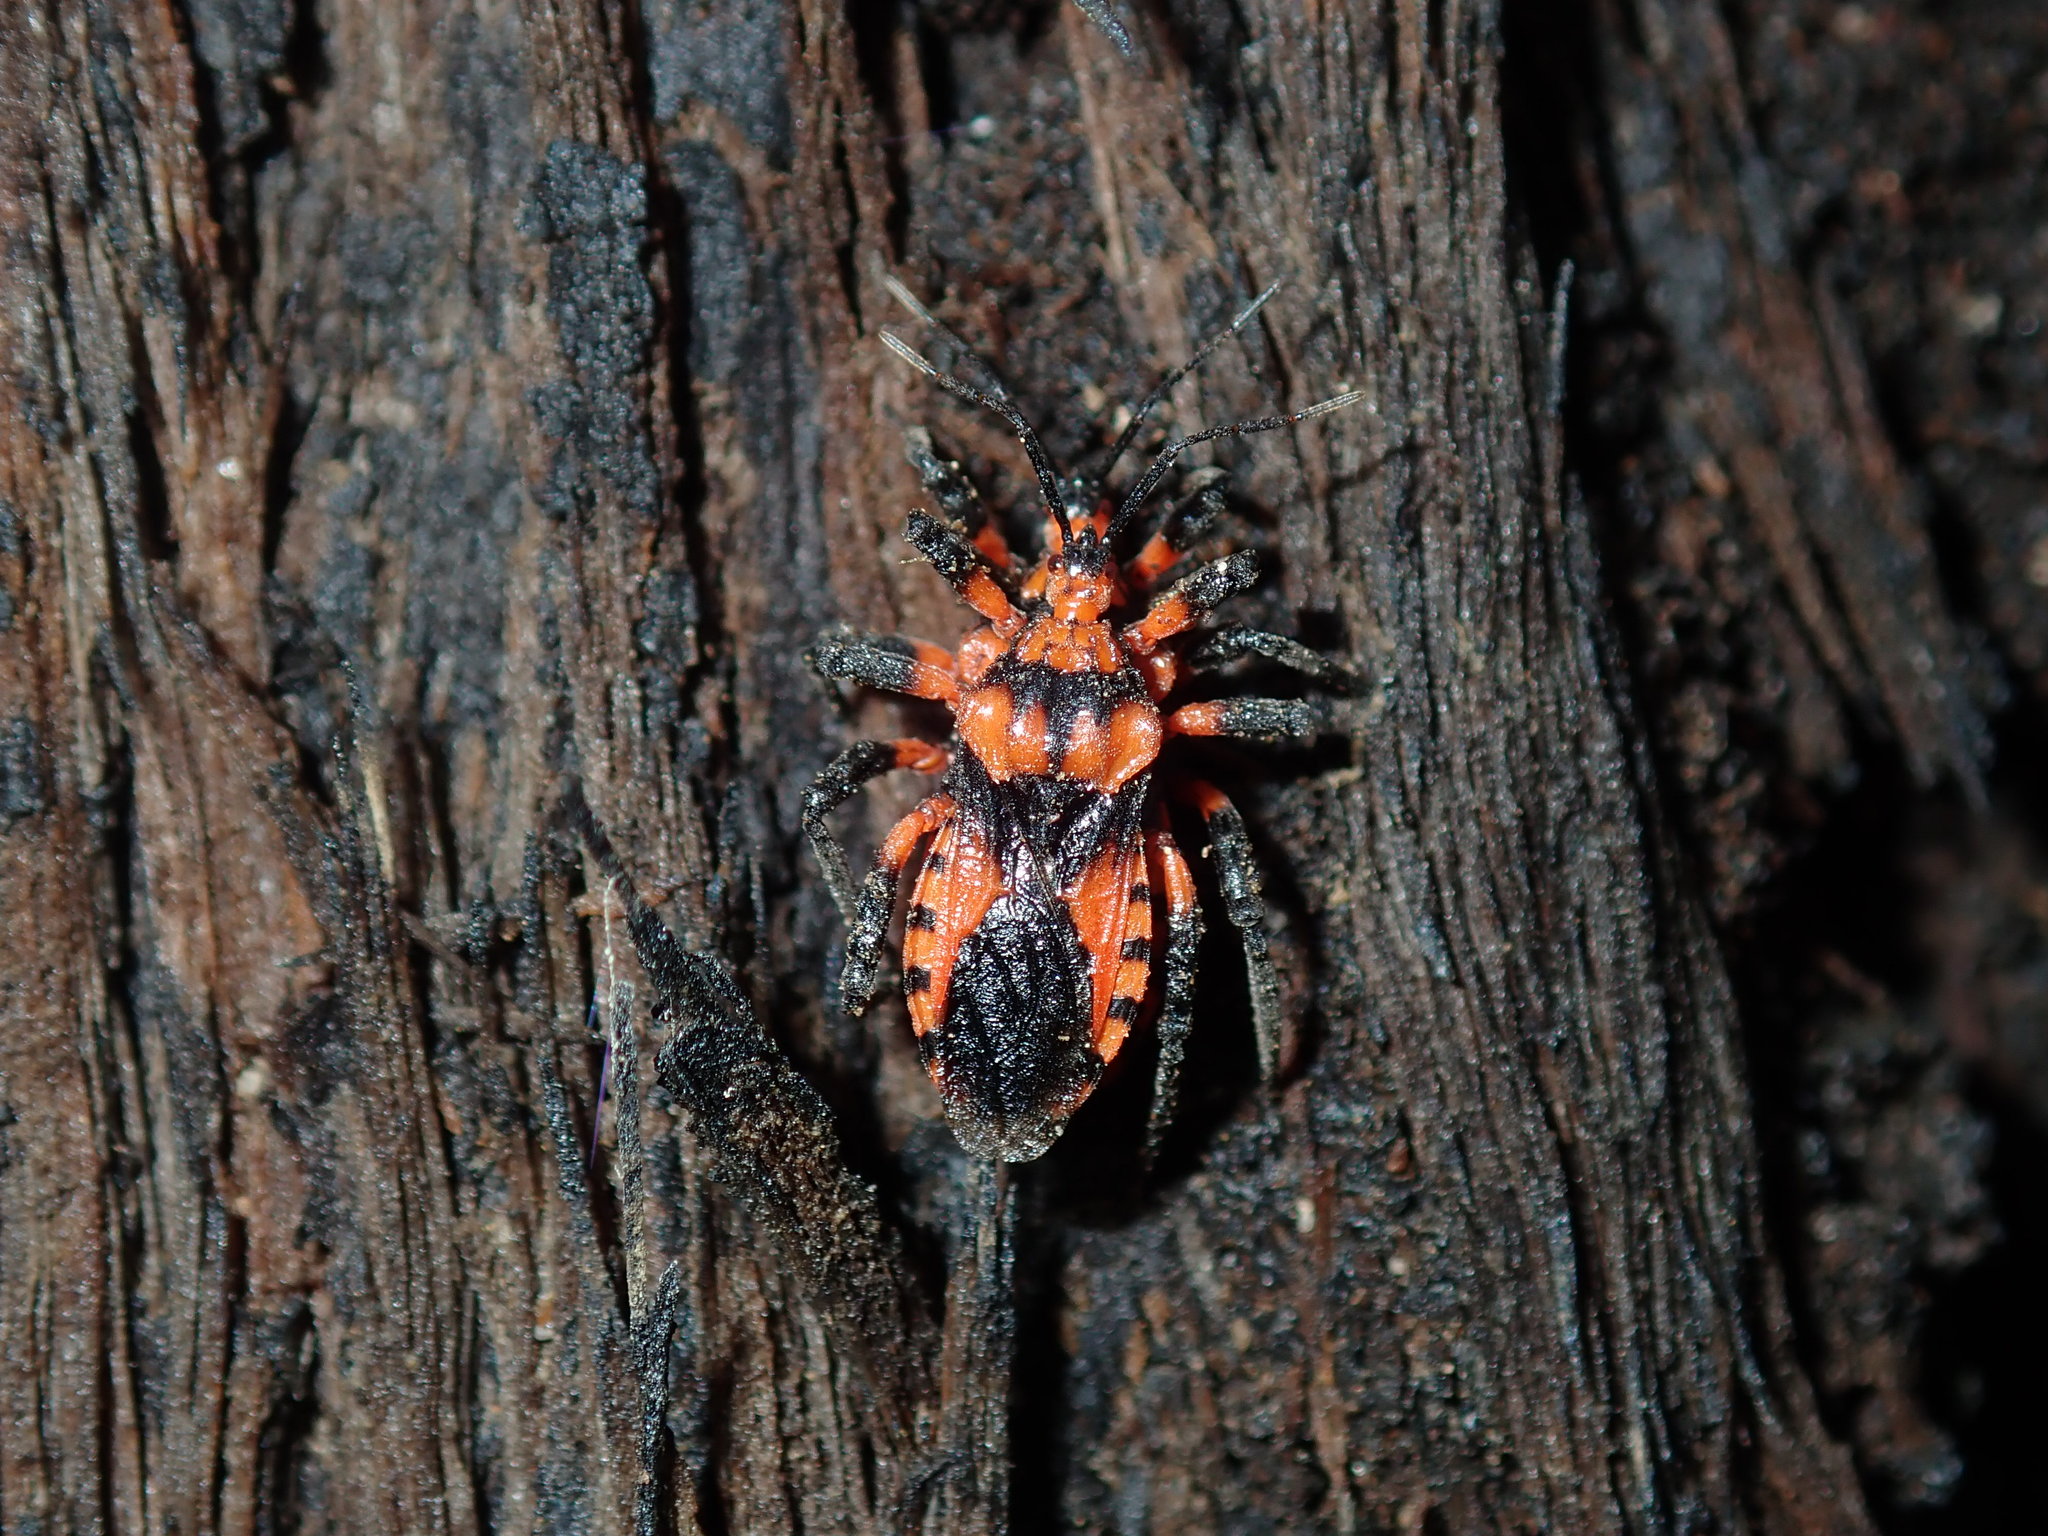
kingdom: Animalia
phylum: Arthropoda
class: Insecta
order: Hemiptera
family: Reduviidae
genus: Tegea
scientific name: Tegea atropicta
